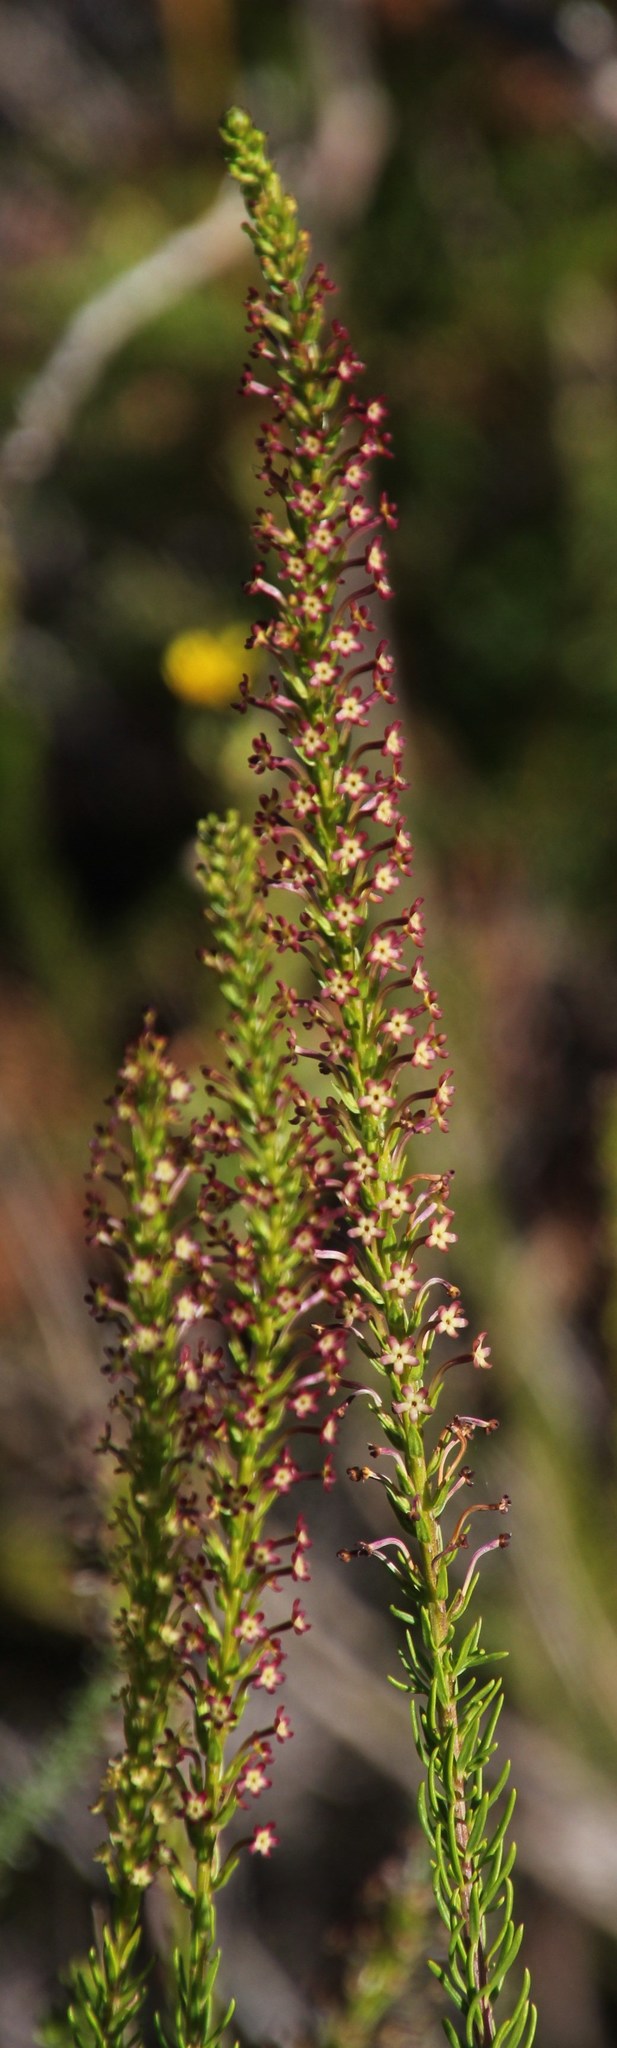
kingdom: Plantae
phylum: Tracheophyta
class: Magnoliopsida
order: Lamiales
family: Scrophulariaceae
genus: Microdon
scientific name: Microdon dubius
